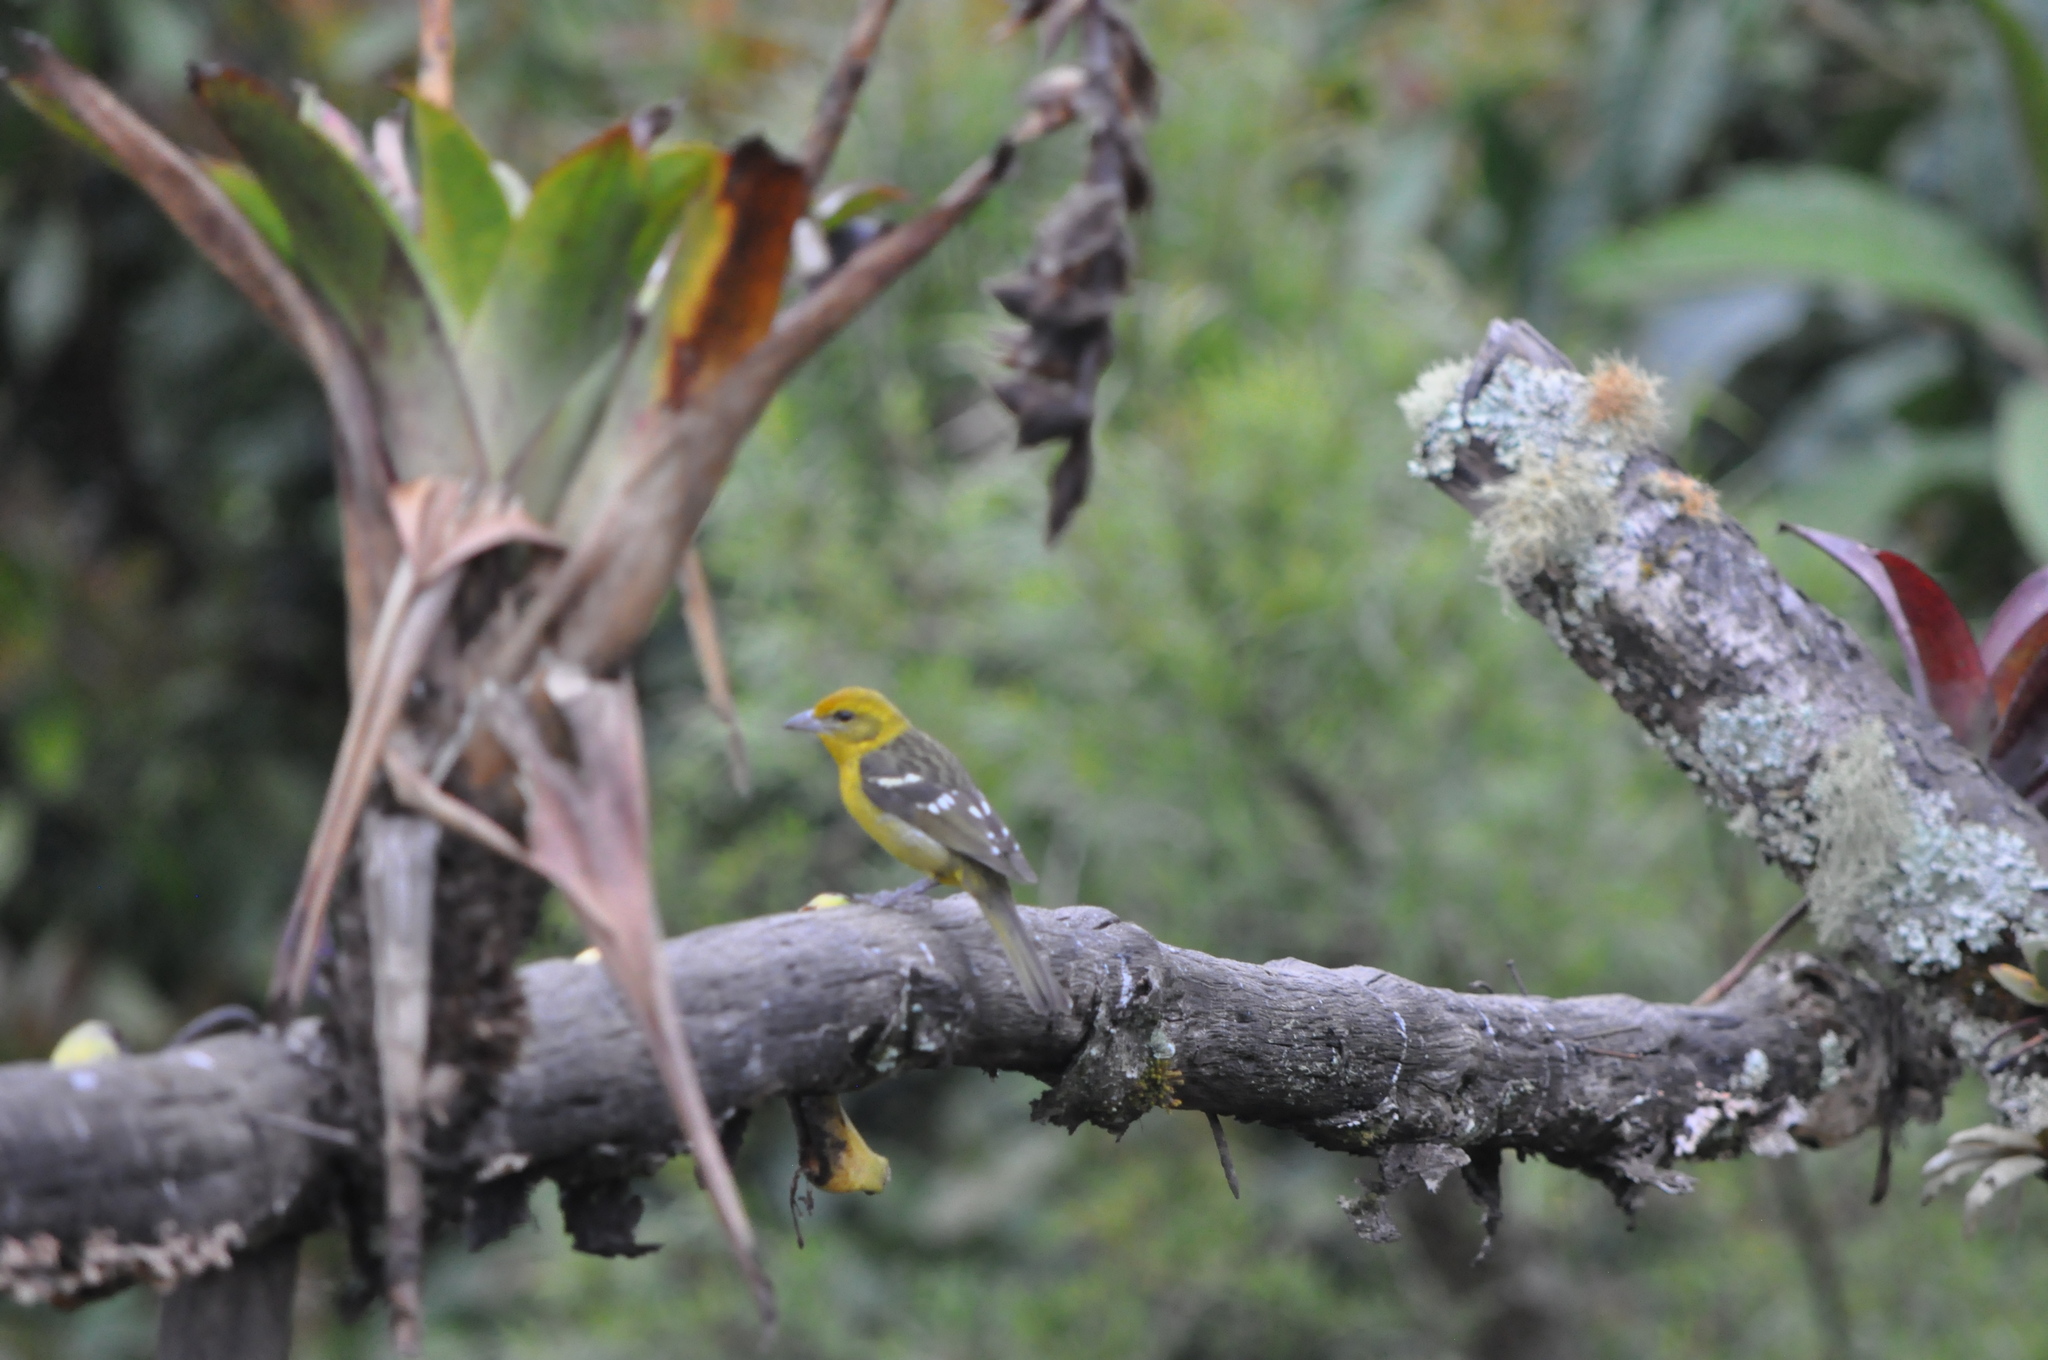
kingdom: Animalia
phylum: Chordata
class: Aves
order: Passeriformes
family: Cardinalidae
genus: Piranga
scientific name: Piranga bidentata
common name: Flame-colored tanager
